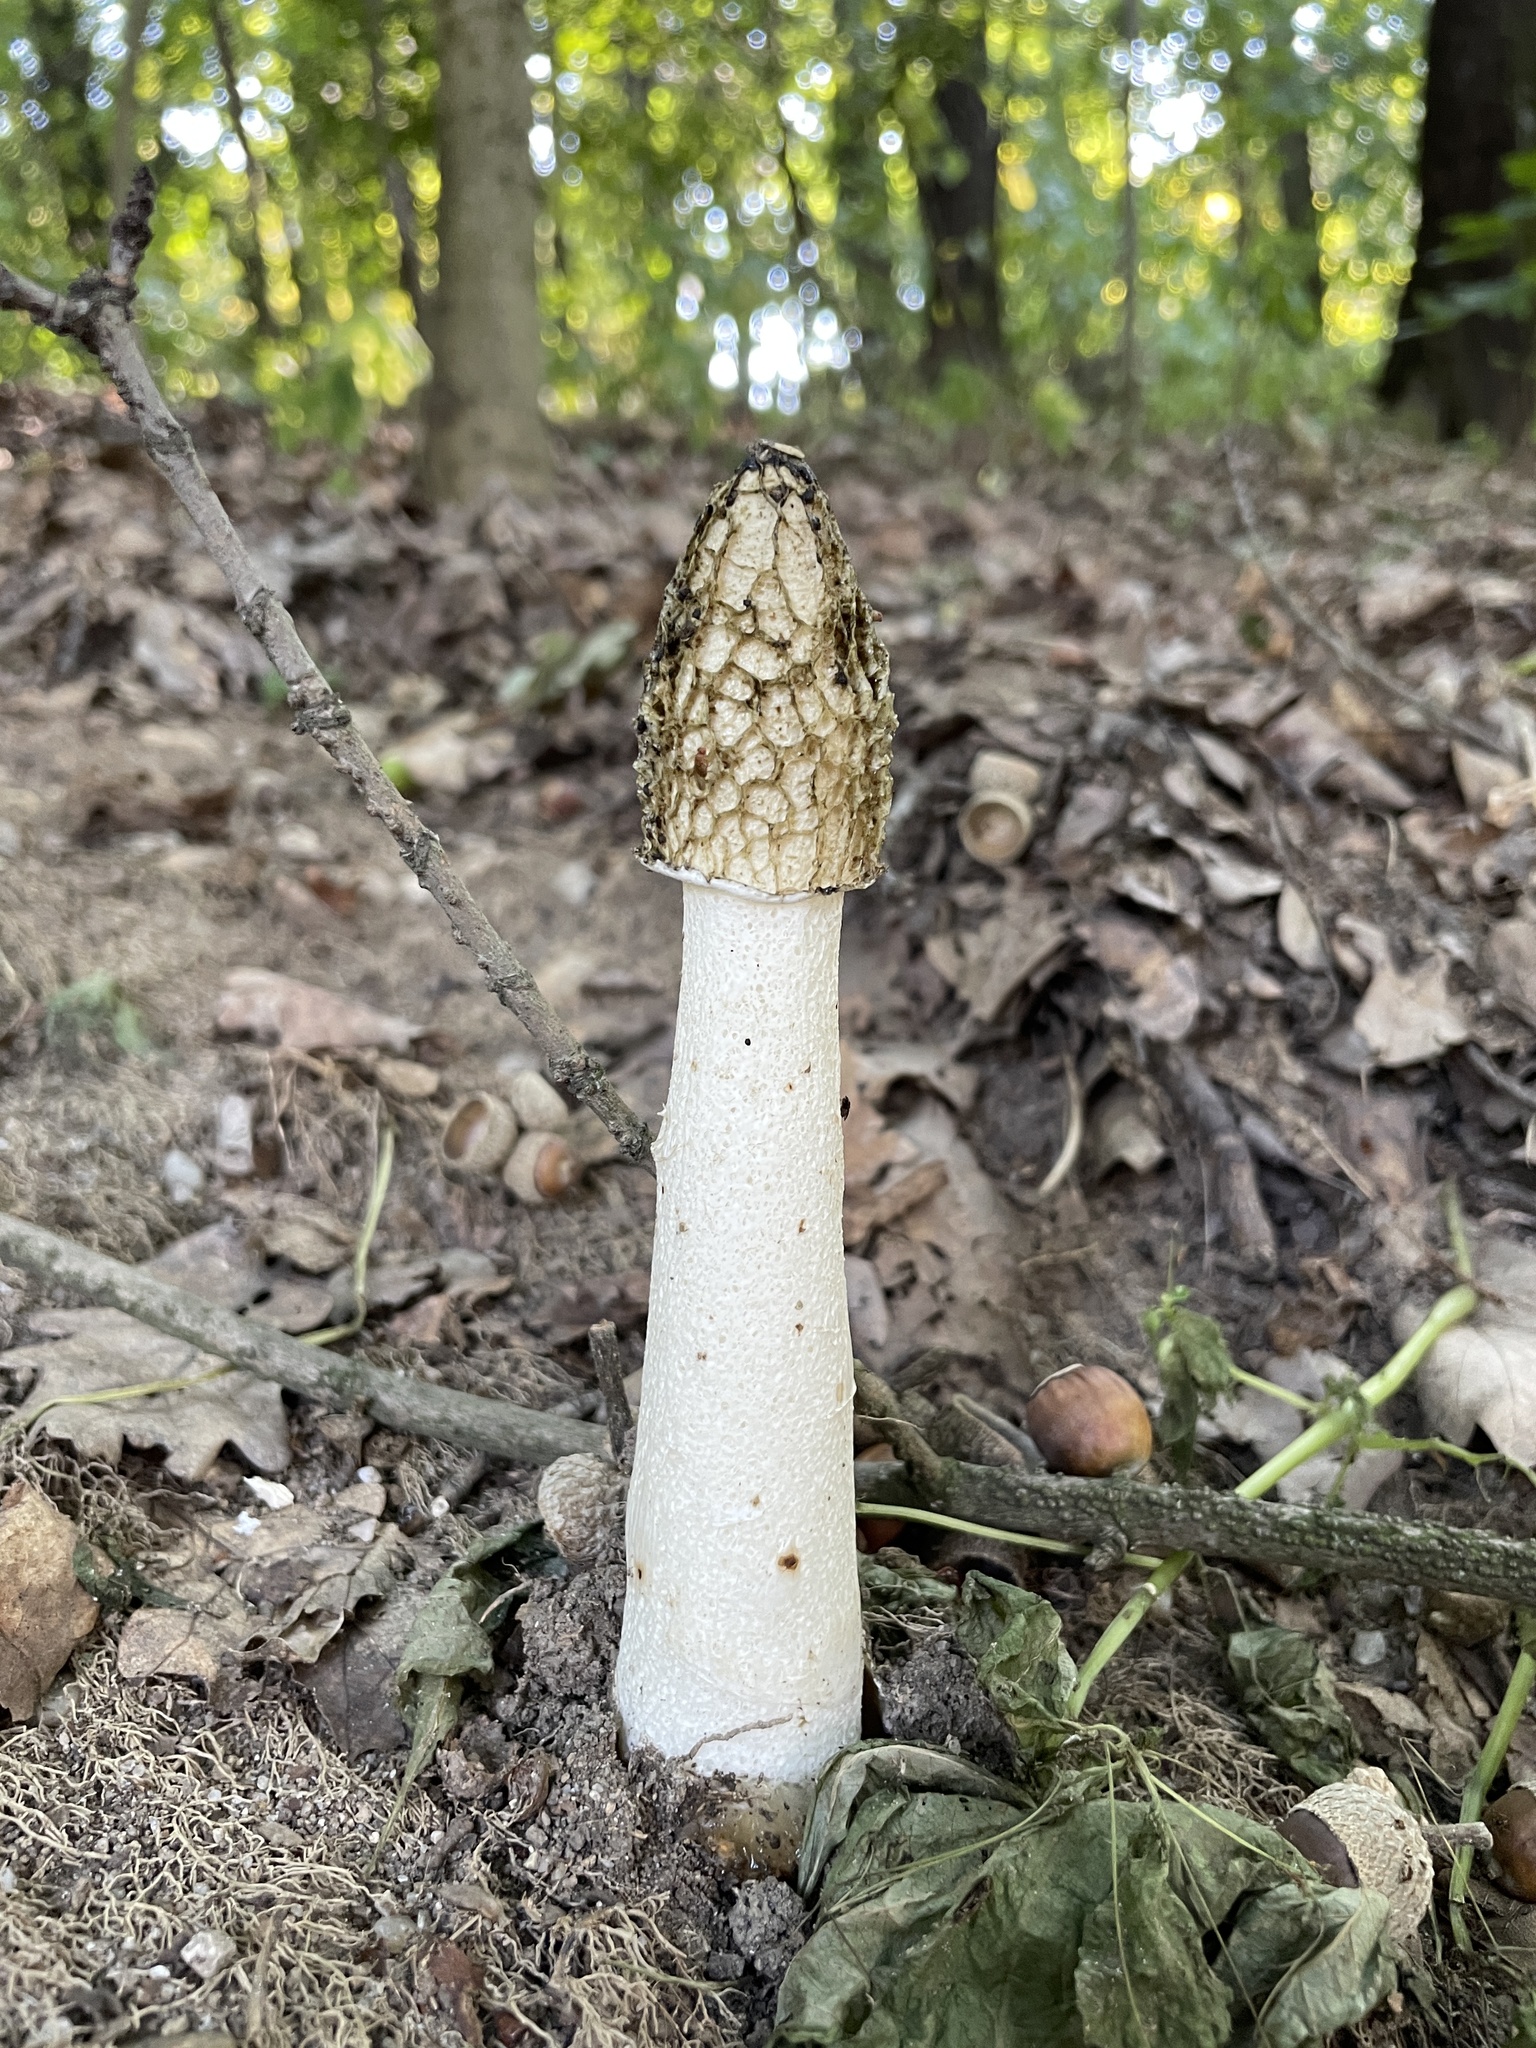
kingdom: Fungi
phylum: Basidiomycota
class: Agaricomycetes
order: Phallales
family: Phallaceae
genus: Phallus
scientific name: Phallus impudicus
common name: Common stinkhorn
